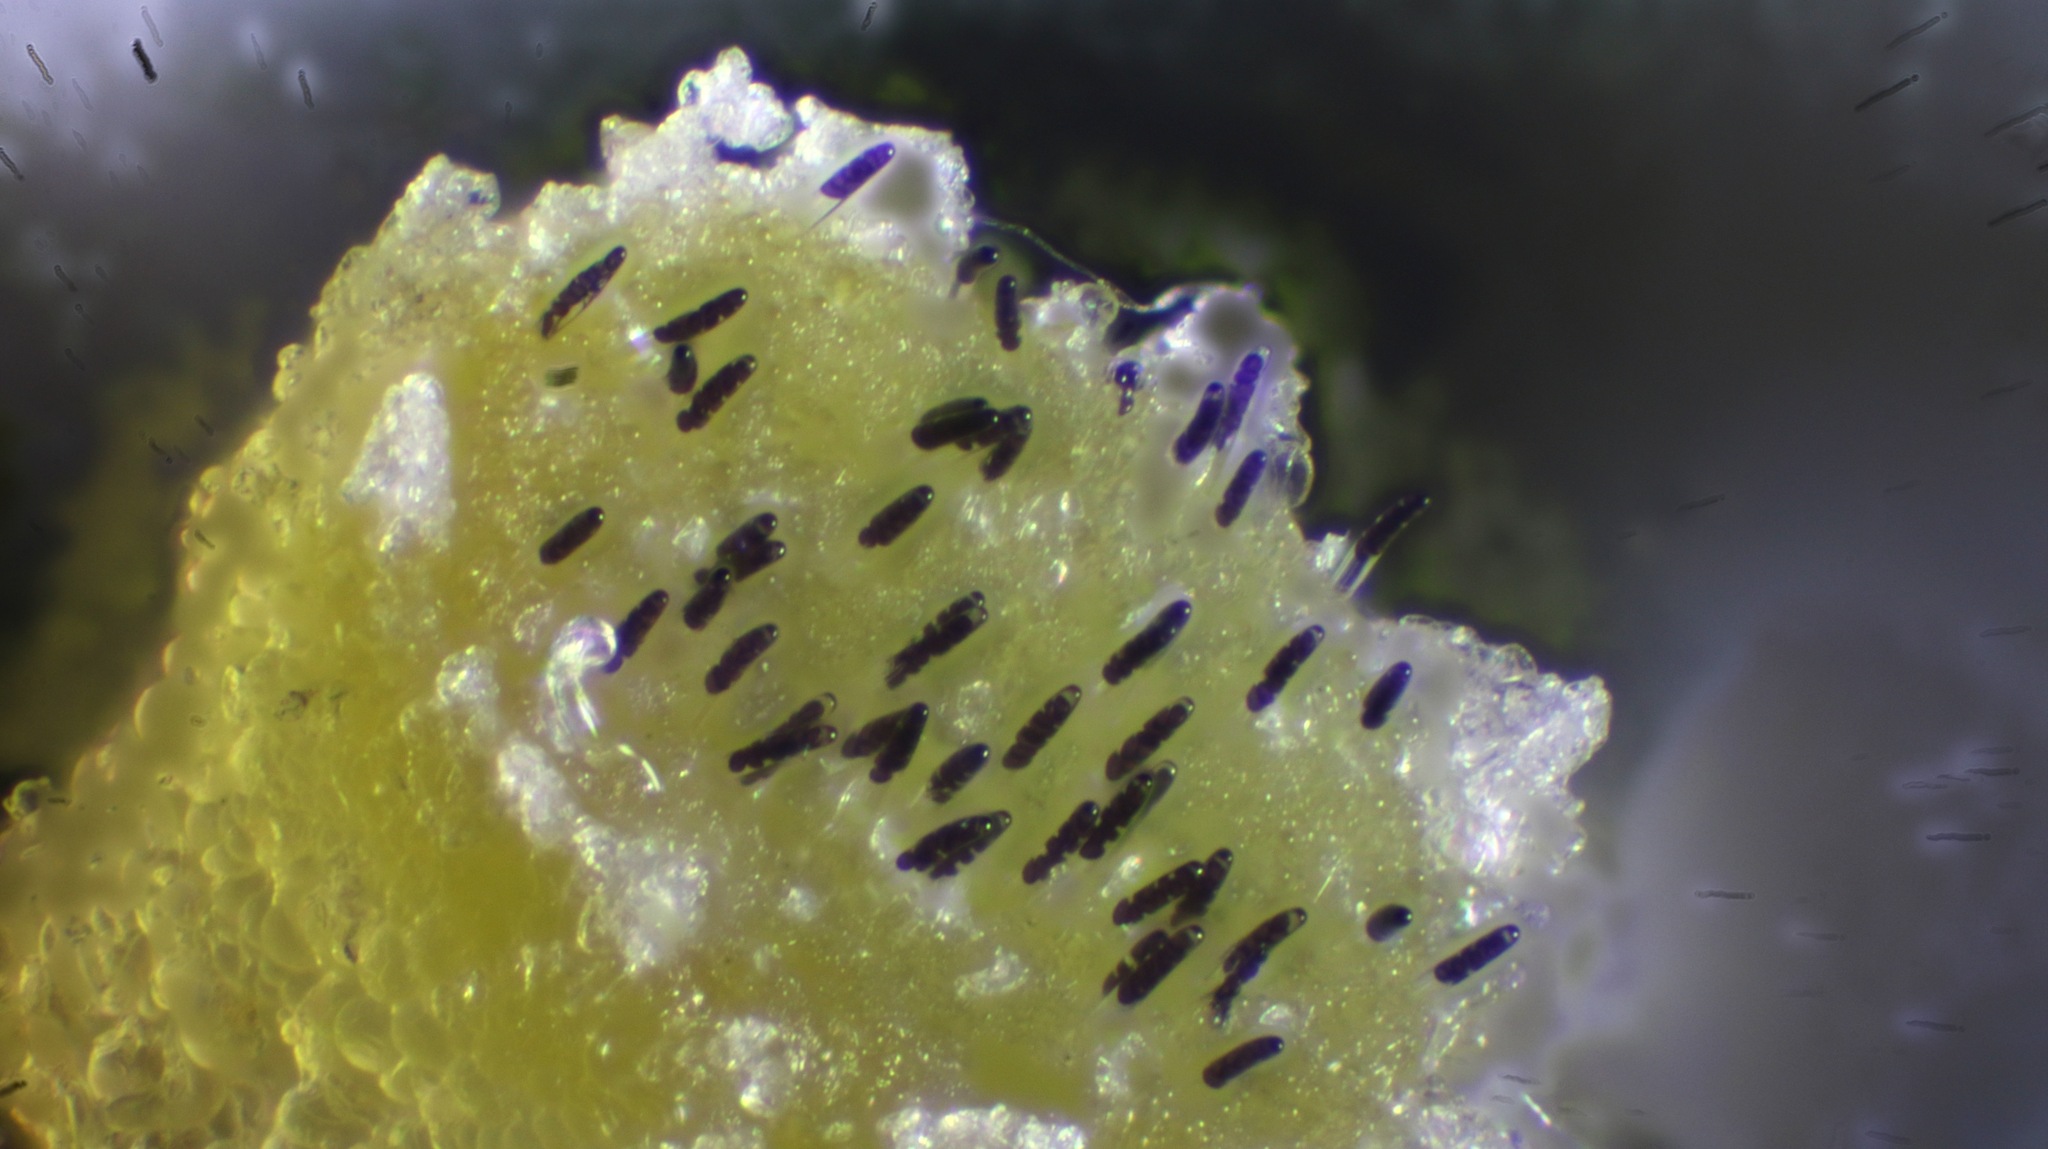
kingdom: Fungi
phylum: Ascomycota
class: Pezizomycetes
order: Pezizales
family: Ascobolaceae
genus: Ascobolus
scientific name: Ascobolus crenulatus
